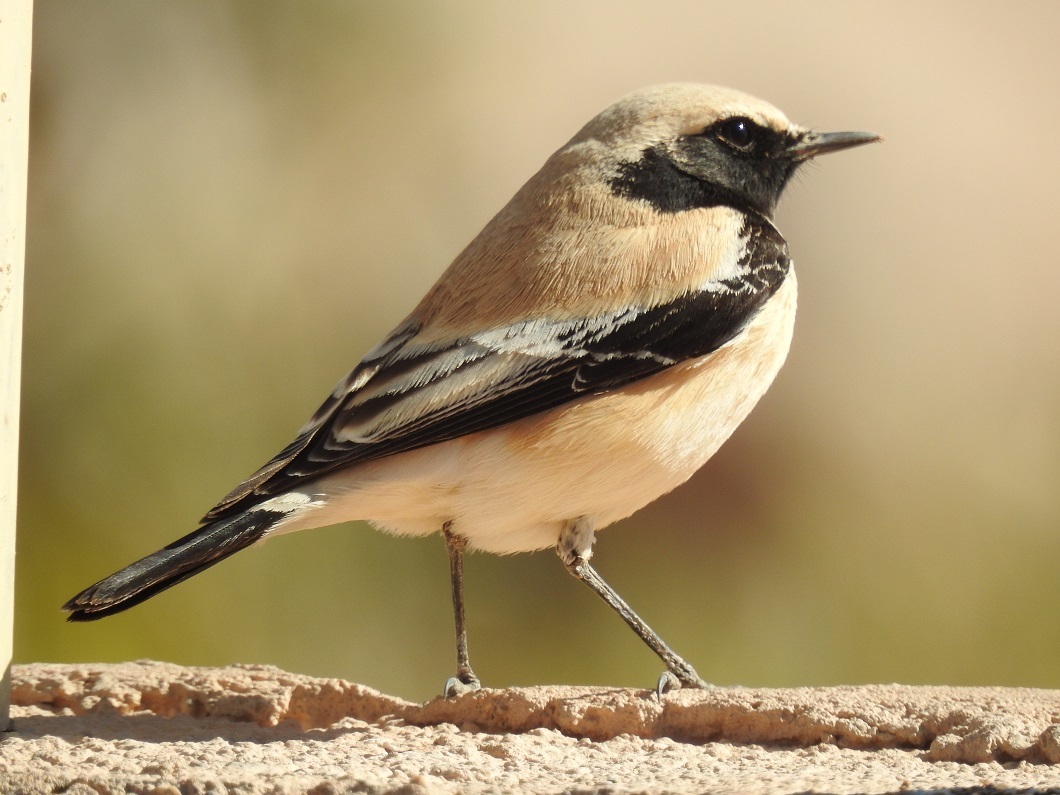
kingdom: Animalia
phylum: Chordata
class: Aves
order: Passeriformes
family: Muscicapidae
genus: Oenanthe
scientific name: Oenanthe deserti
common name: Desert wheatear
